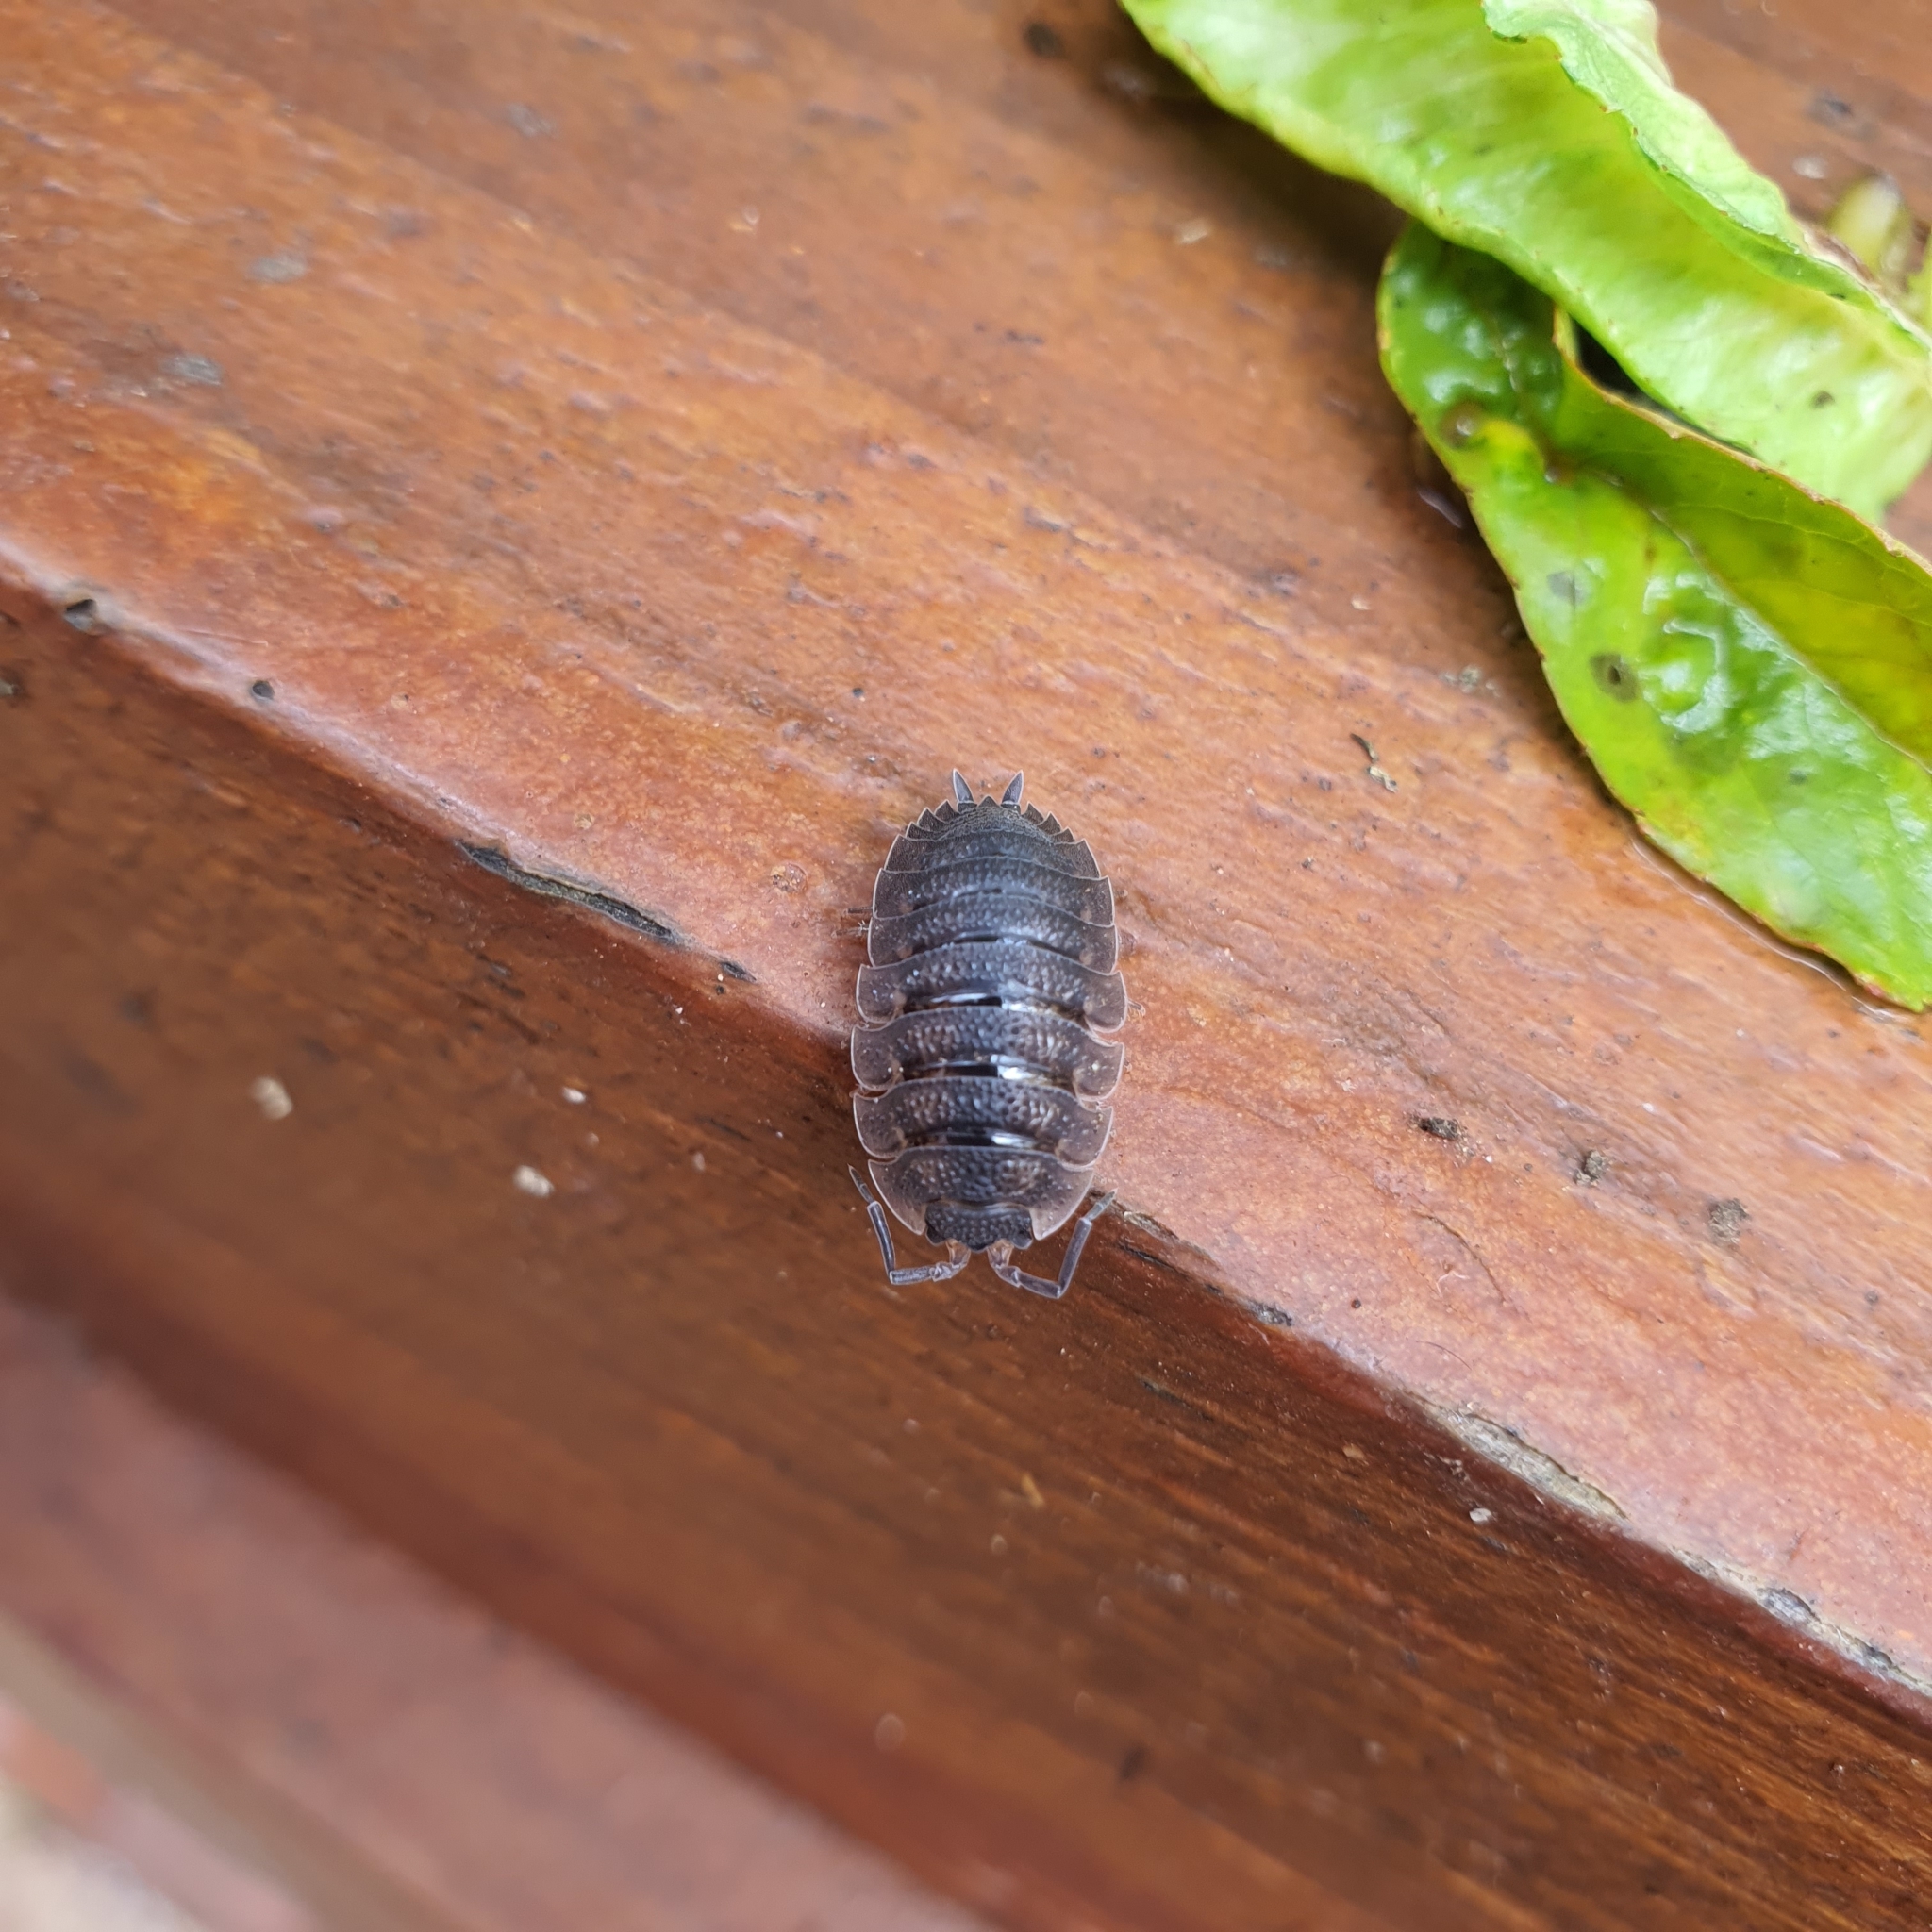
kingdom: Animalia
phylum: Arthropoda
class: Malacostraca
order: Isopoda
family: Porcellionidae
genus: Porcellio
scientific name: Porcellio scaber
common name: Common rough woodlouse
